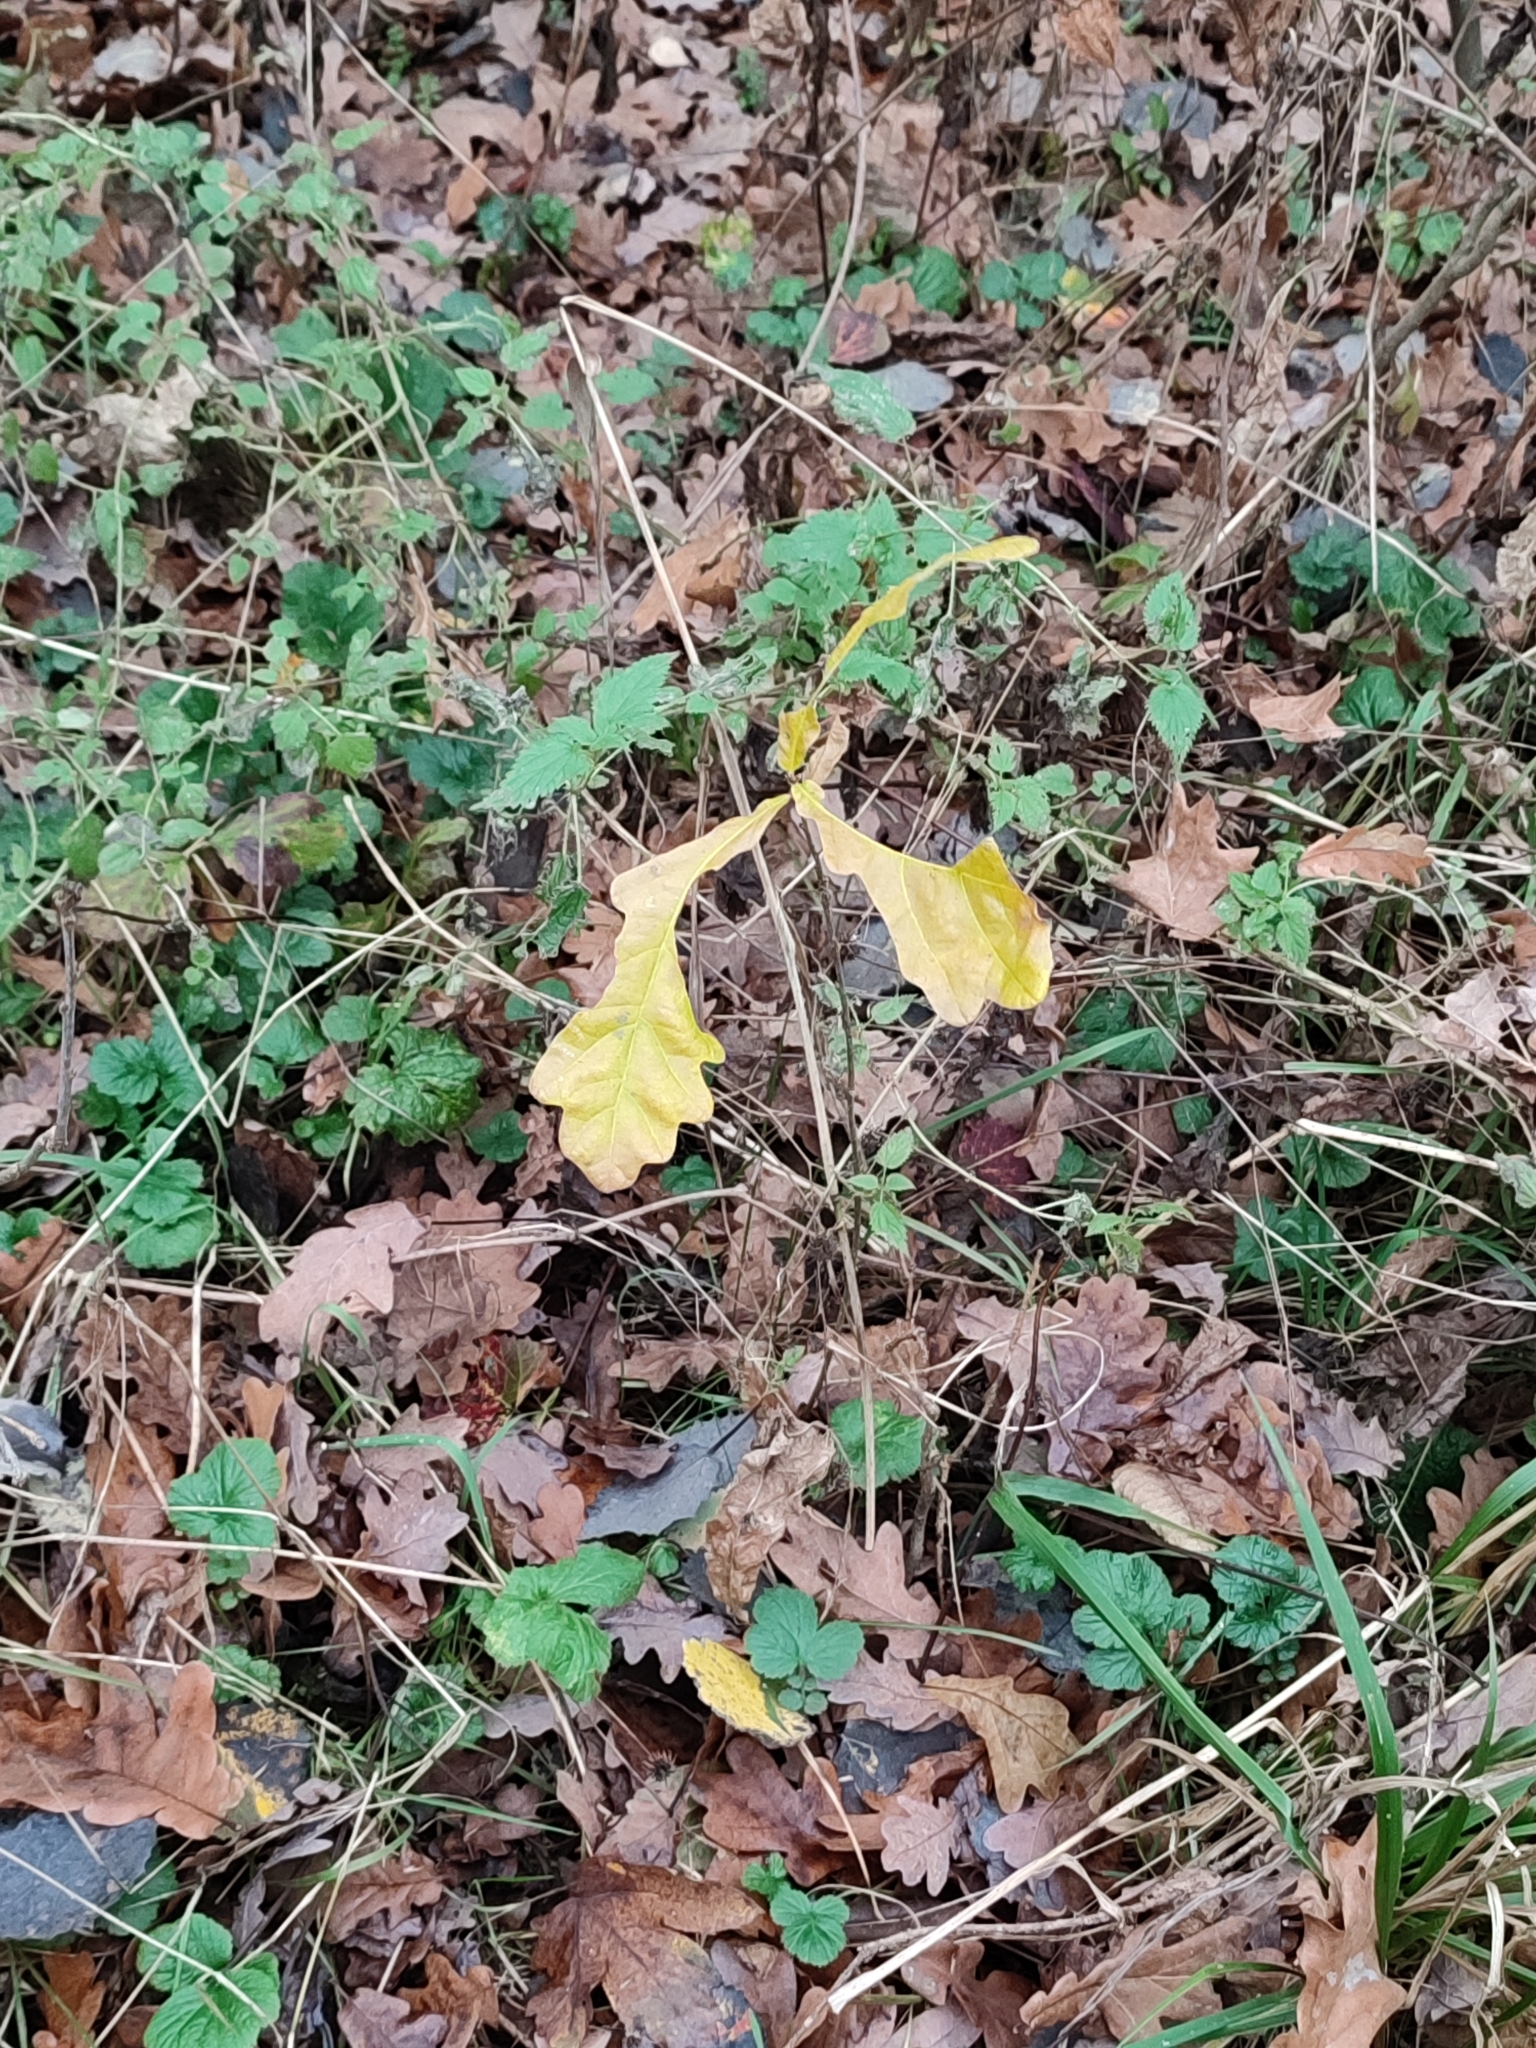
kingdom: Plantae
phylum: Tracheophyta
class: Magnoliopsida
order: Fagales
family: Fagaceae
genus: Quercus
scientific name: Quercus robur
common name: Pedunculate oak
